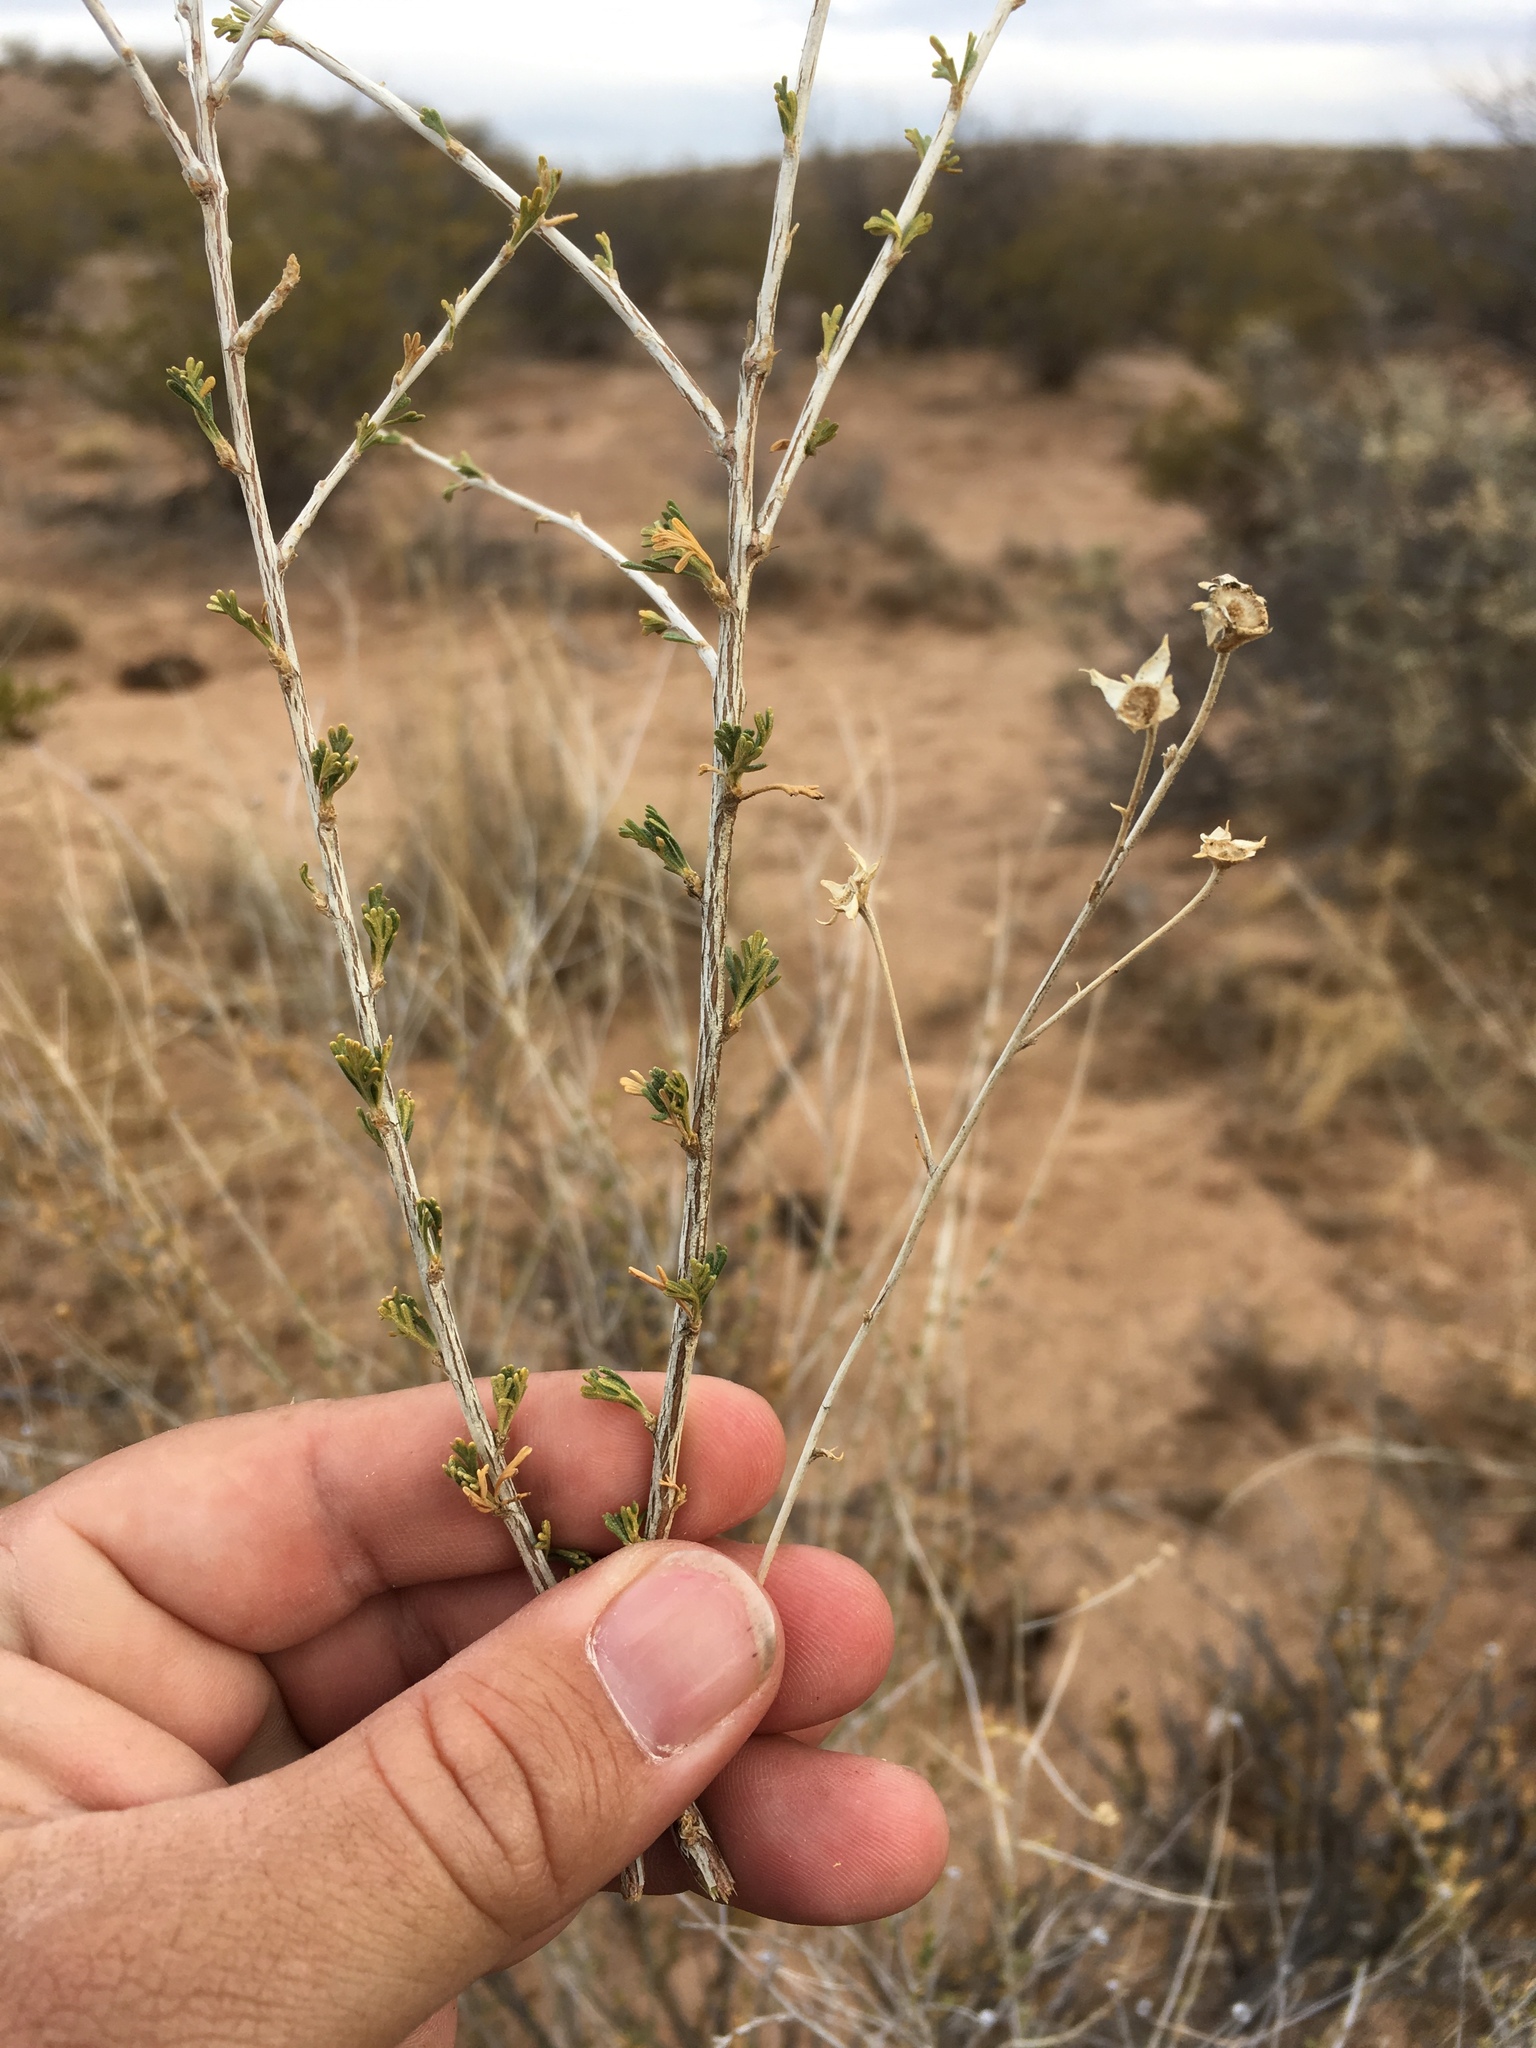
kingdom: Plantae
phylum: Tracheophyta
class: Magnoliopsida
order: Rosales
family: Rosaceae
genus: Fallugia
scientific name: Fallugia paradoxa
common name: Apache-plume
